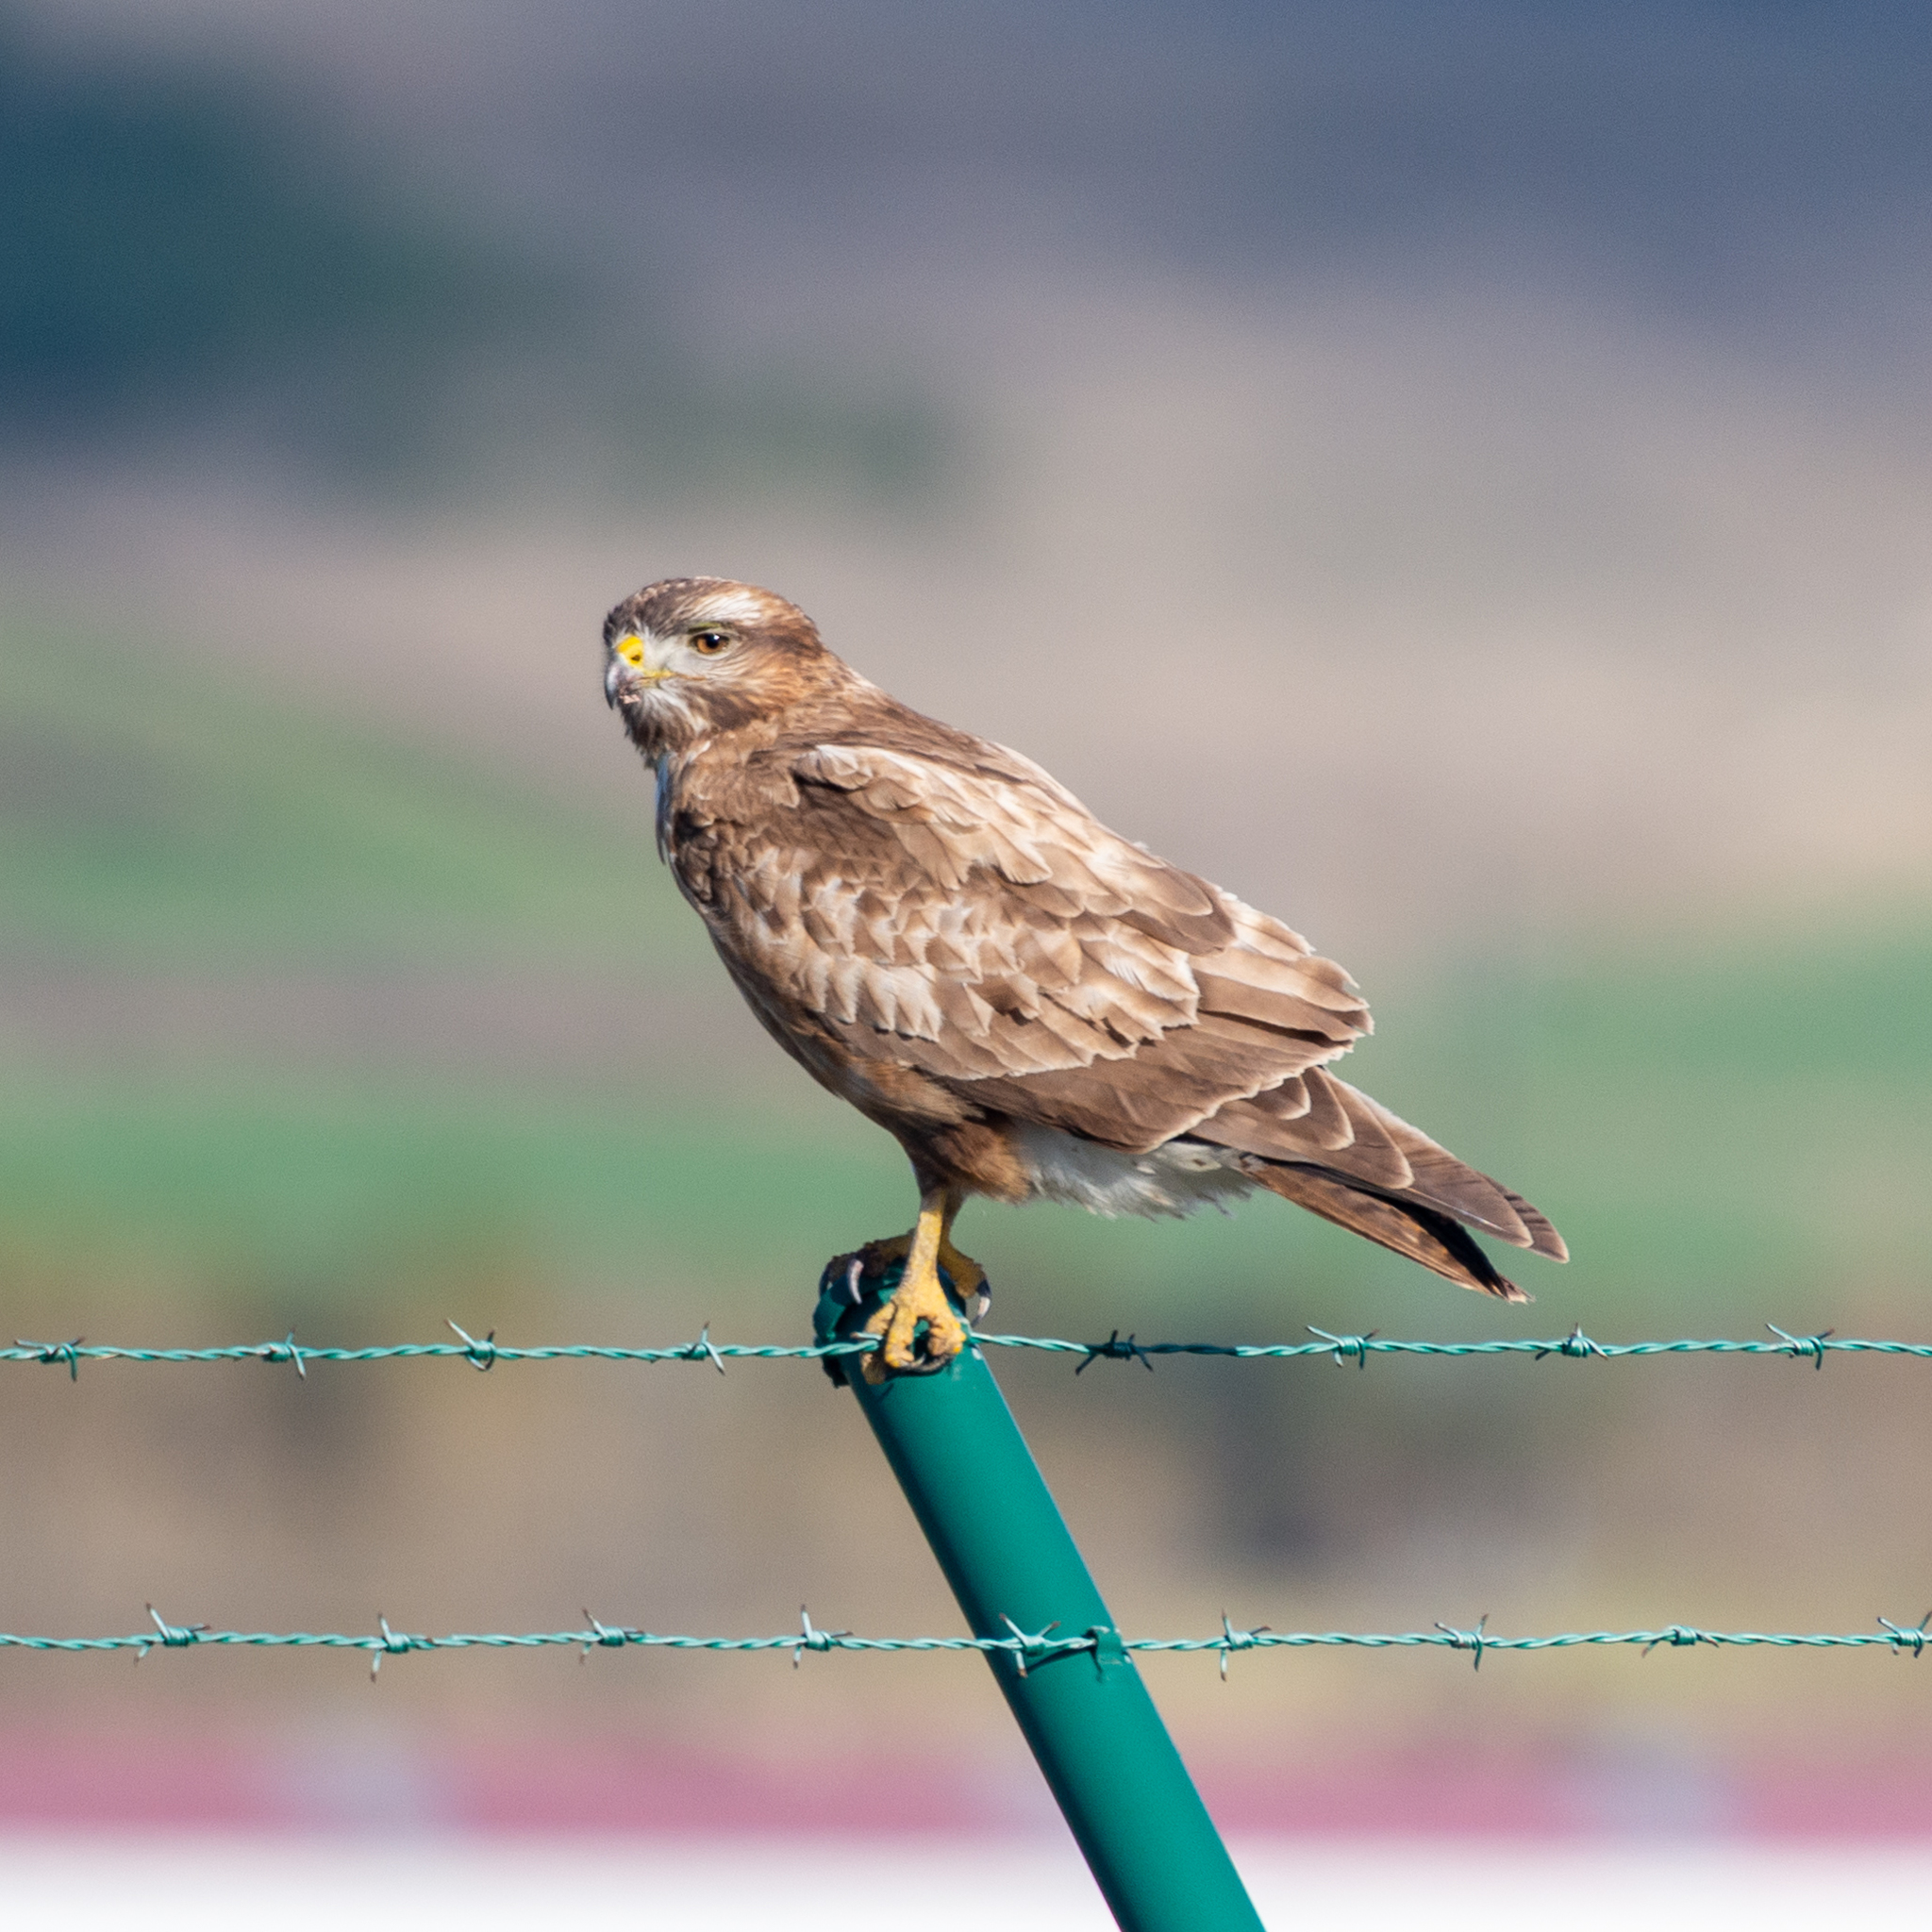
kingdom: Animalia
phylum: Chordata
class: Aves
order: Accipitriformes
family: Accipitridae
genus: Buteo
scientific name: Buteo buteo
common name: Common buzzard
